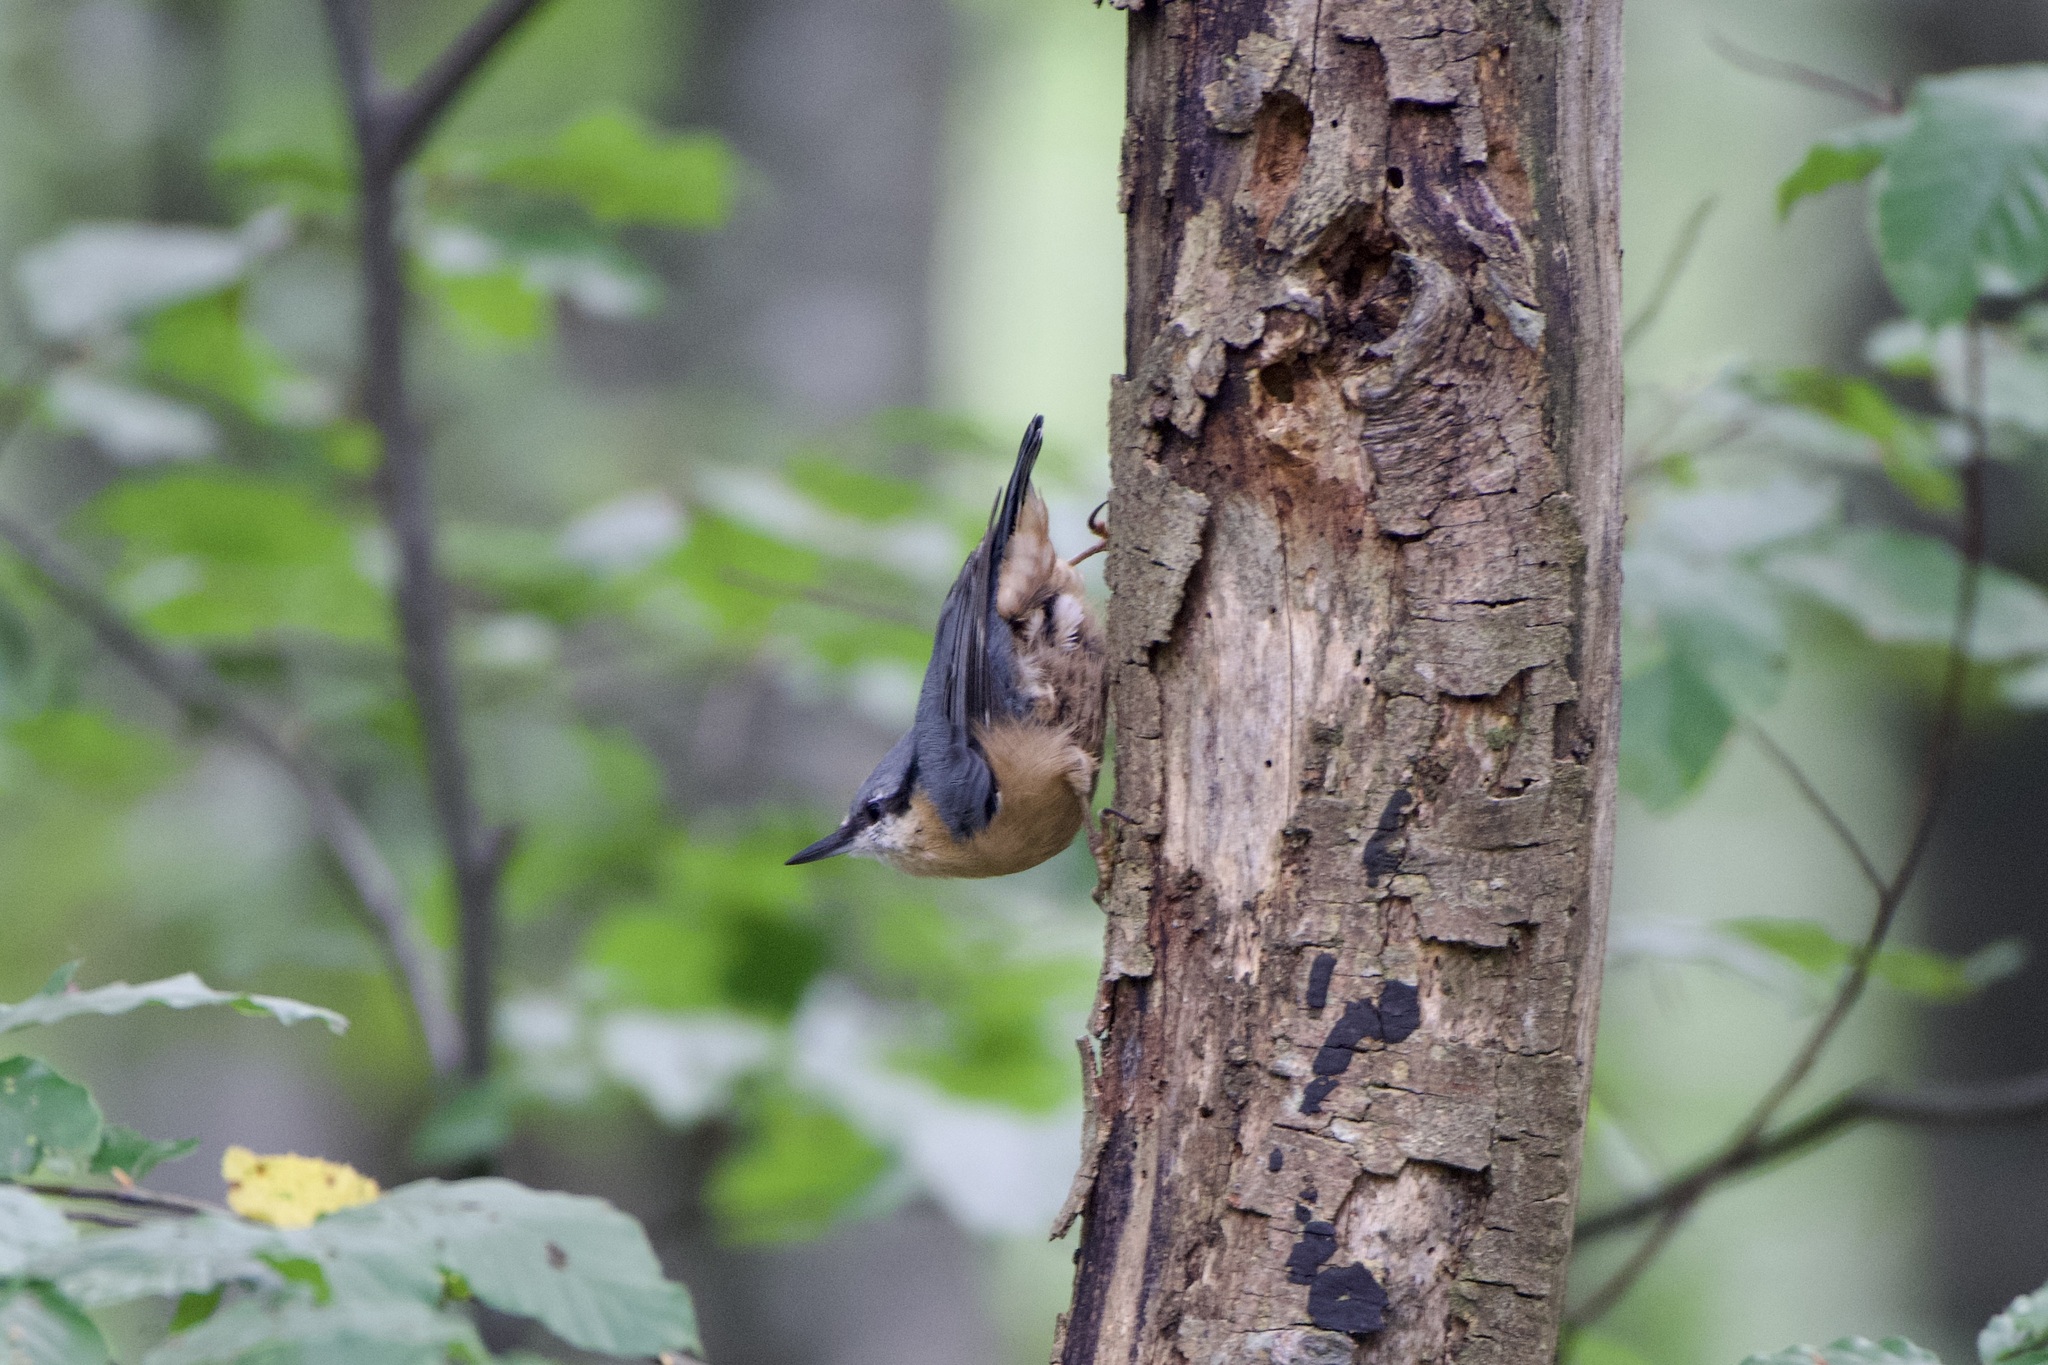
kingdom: Animalia
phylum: Chordata
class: Aves
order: Passeriformes
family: Sittidae
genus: Sitta
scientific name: Sitta europaea
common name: Eurasian nuthatch
